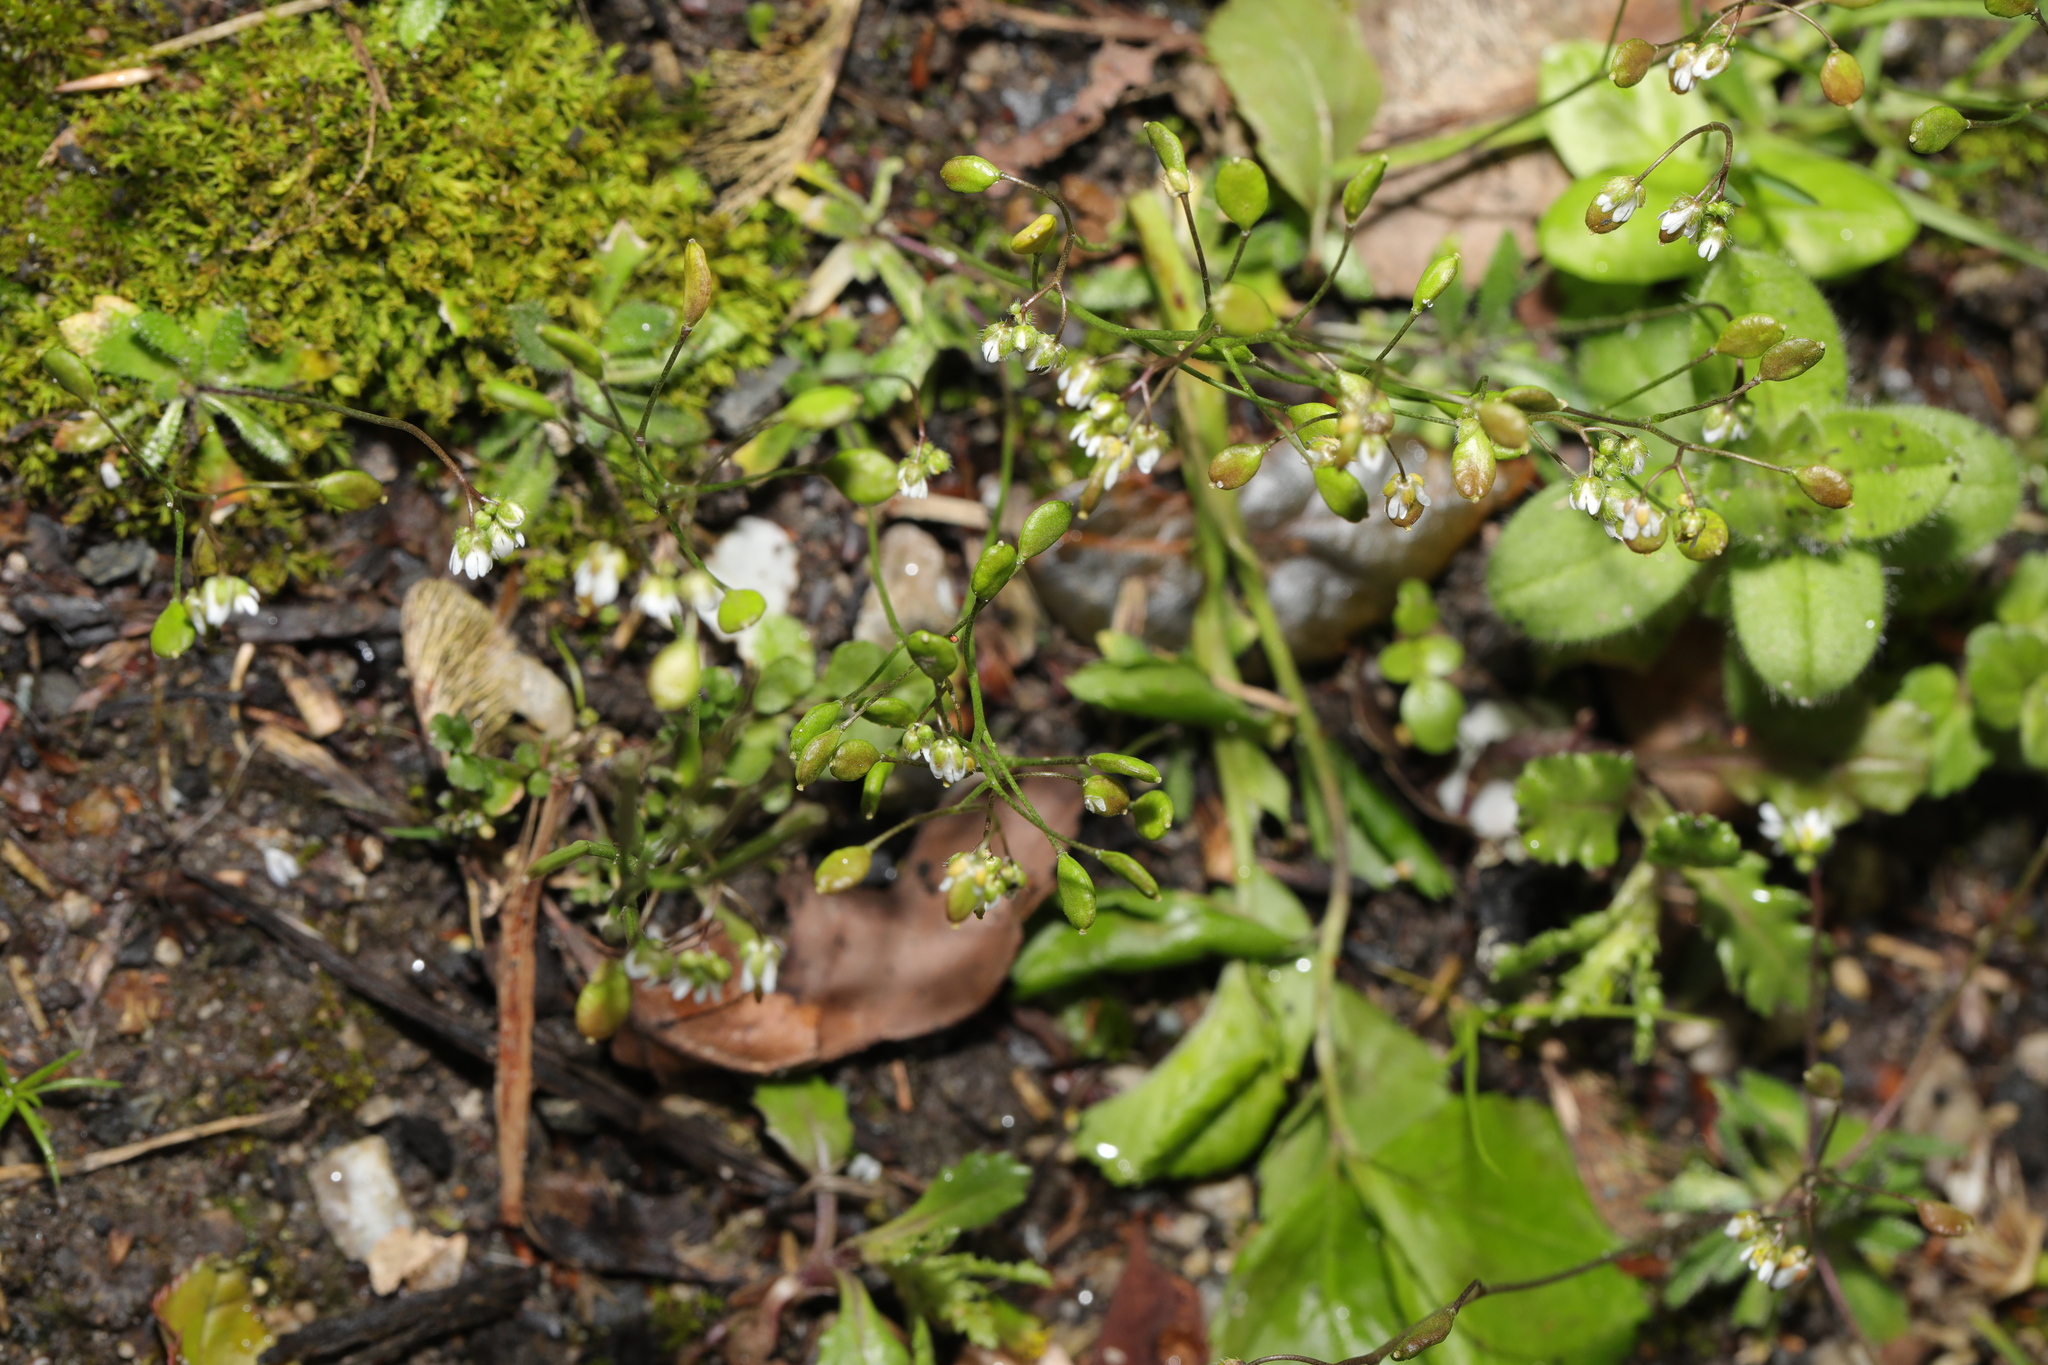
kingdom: Plantae
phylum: Tracheophyta
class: Magnoliopsida
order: Brassicales
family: Brassicaceae
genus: Draba
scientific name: Draba verna
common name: Spring draba
